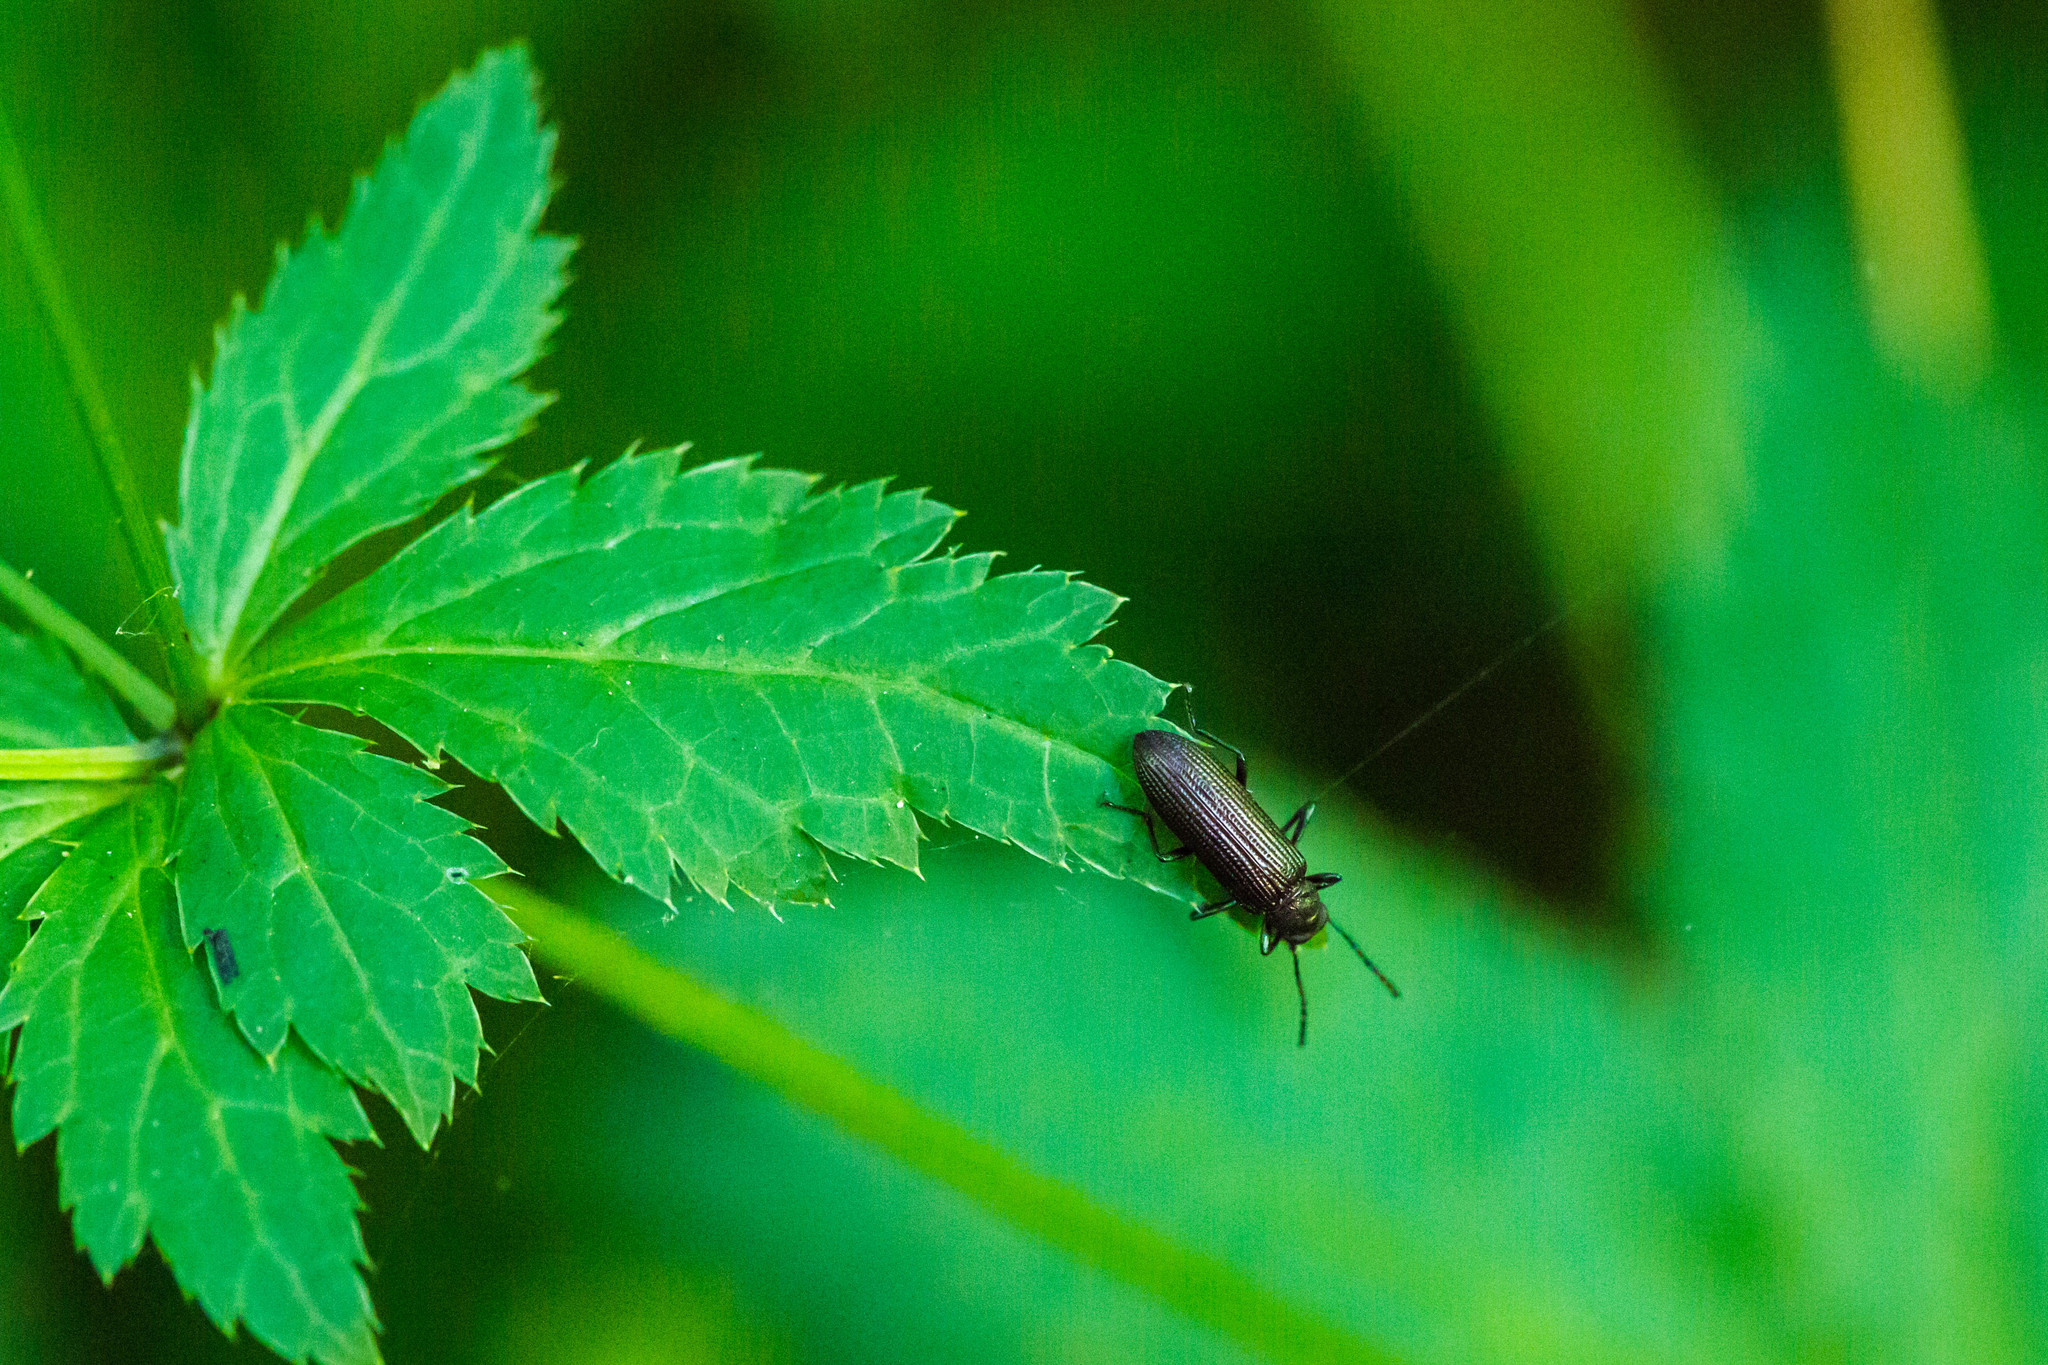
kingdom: Animalia
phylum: Arthropoda
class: Insecta
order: Coleoptera
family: Tenebrionidae
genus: Strongylium
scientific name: Strongylium
